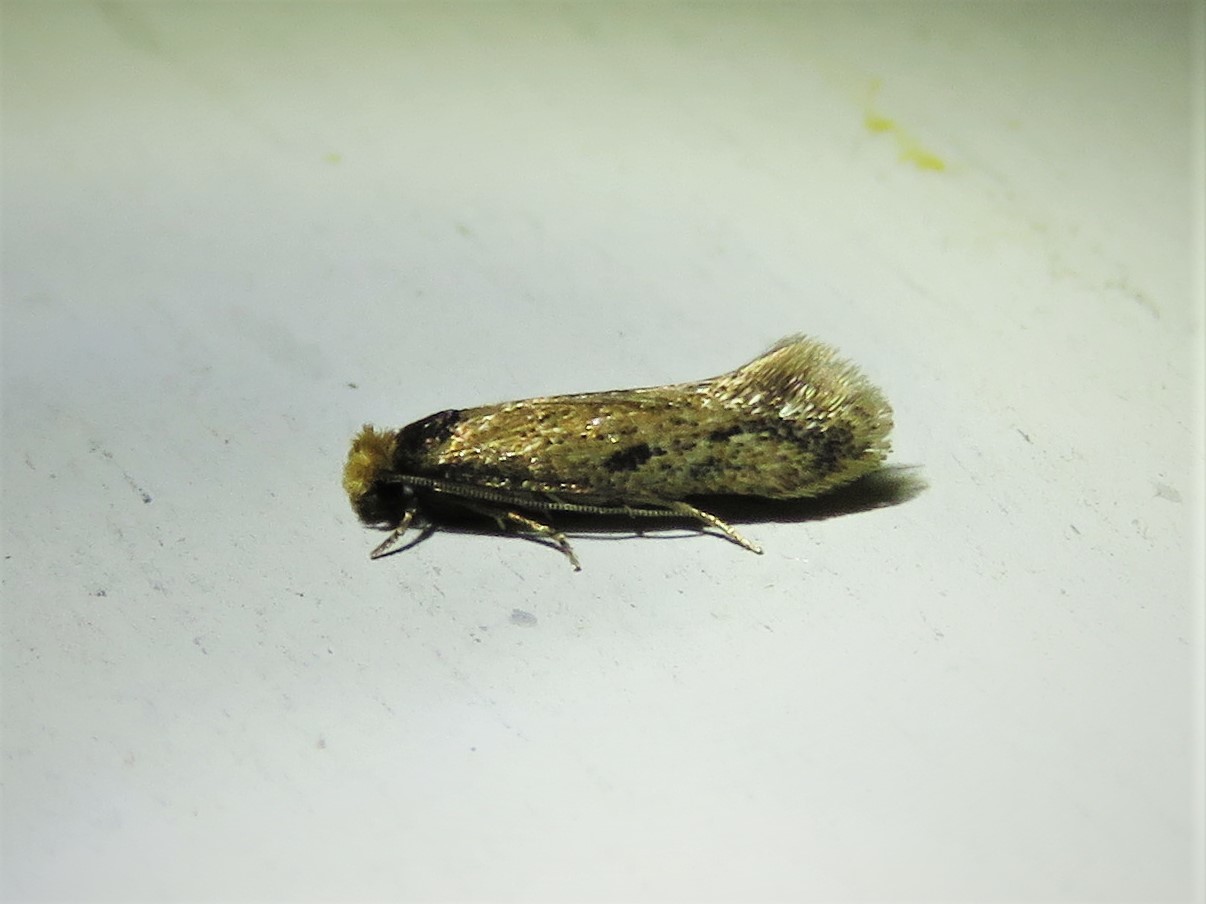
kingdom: Animalia
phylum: Arthropoda
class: Insecta
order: Lepidoptera
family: Meessiidae
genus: Homostinea
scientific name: Homostinea curviliniella
